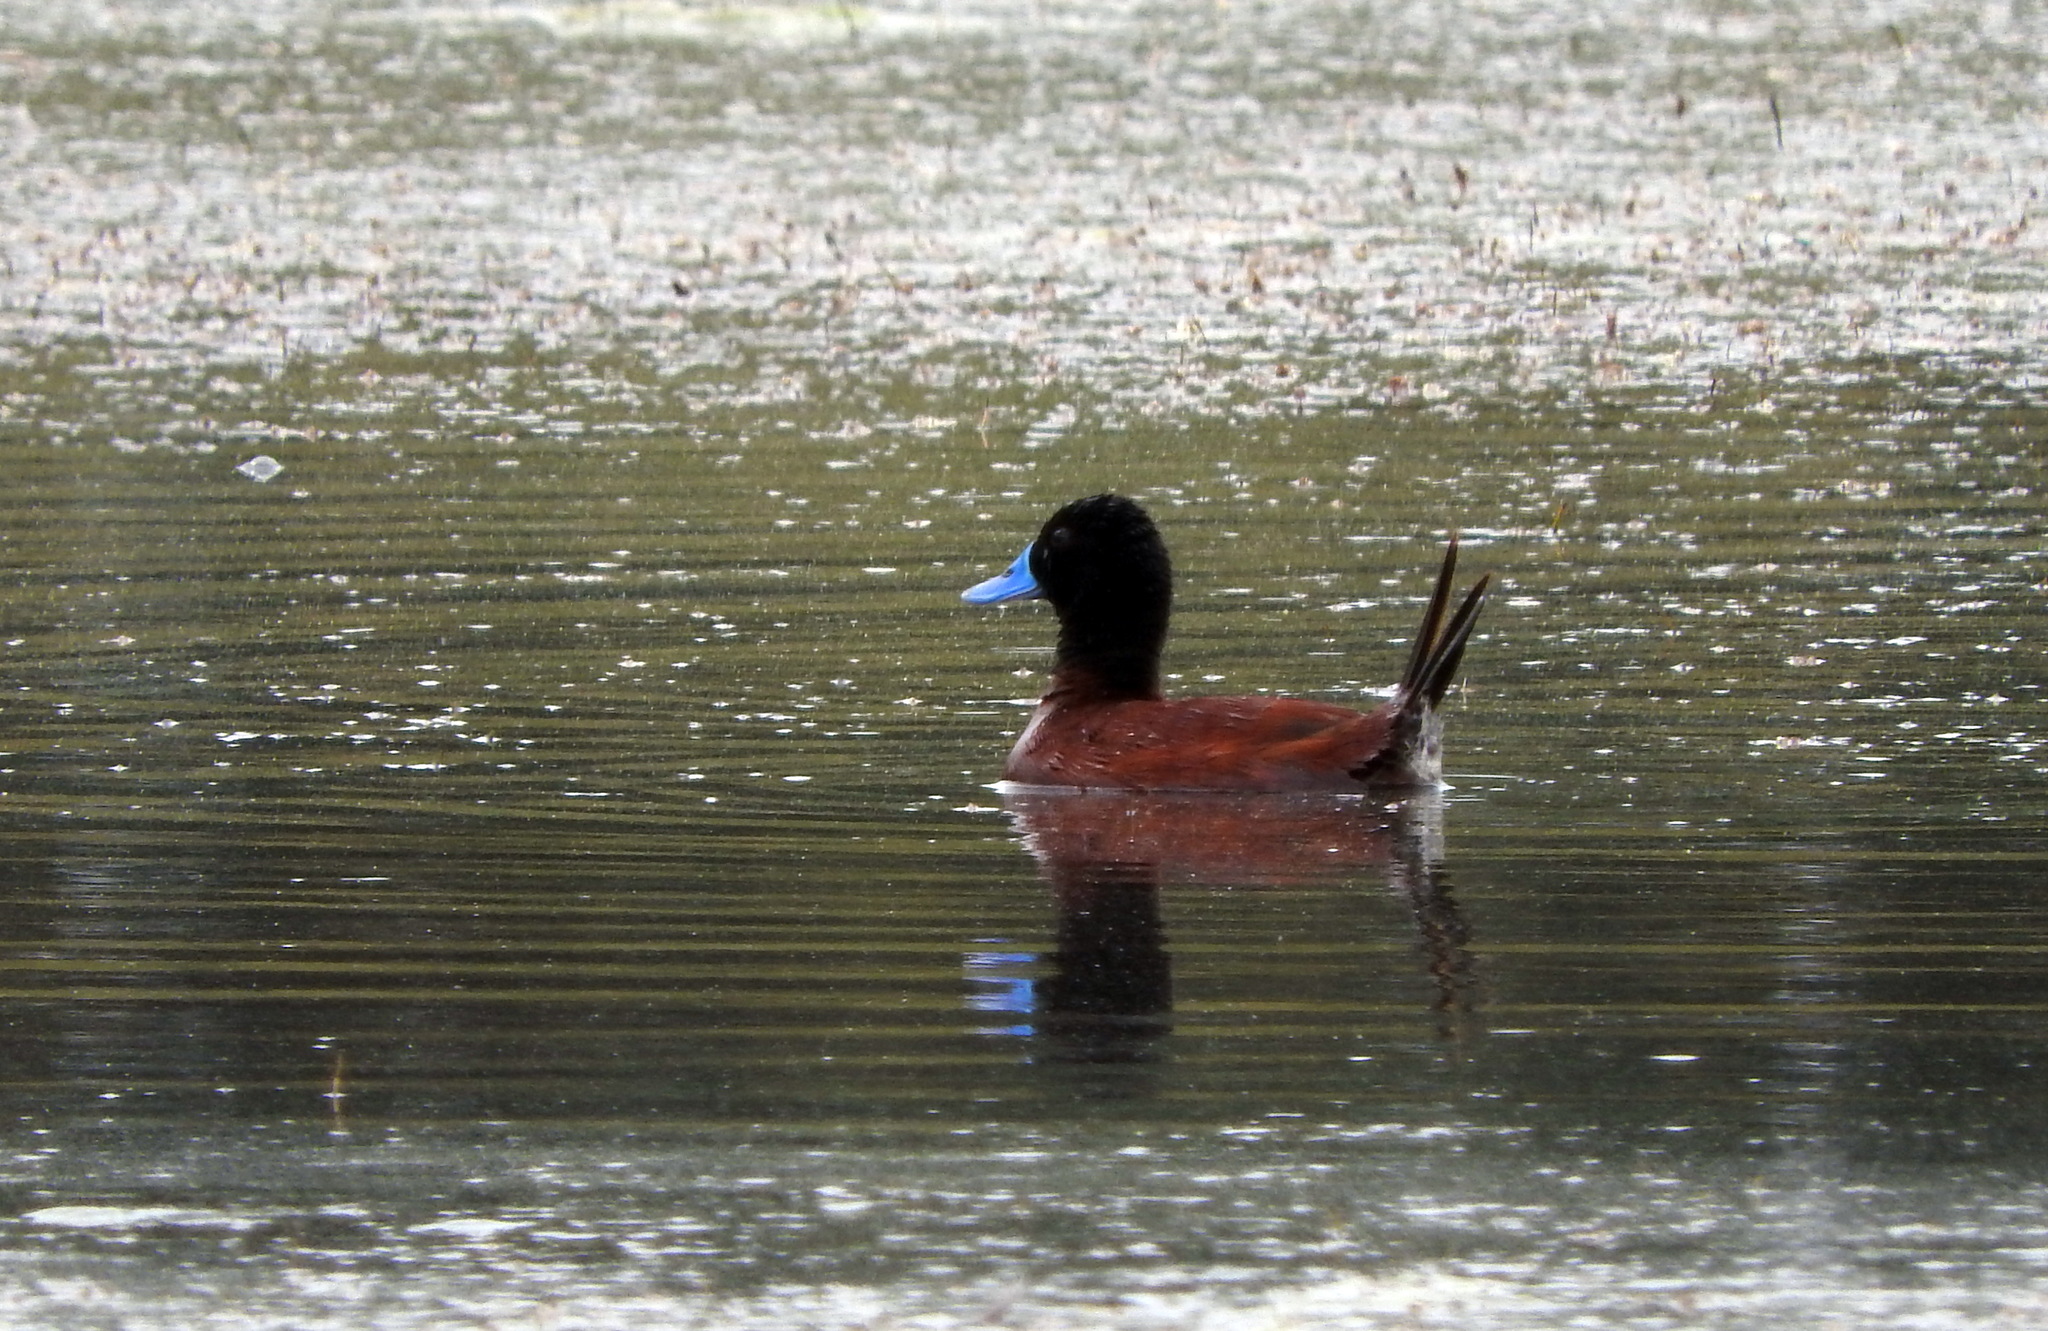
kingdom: Animalia
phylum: Chordata
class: Aves
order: Anseriformes
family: Anatidae
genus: Oxyura
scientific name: Oxyura vittata
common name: Lake duck
